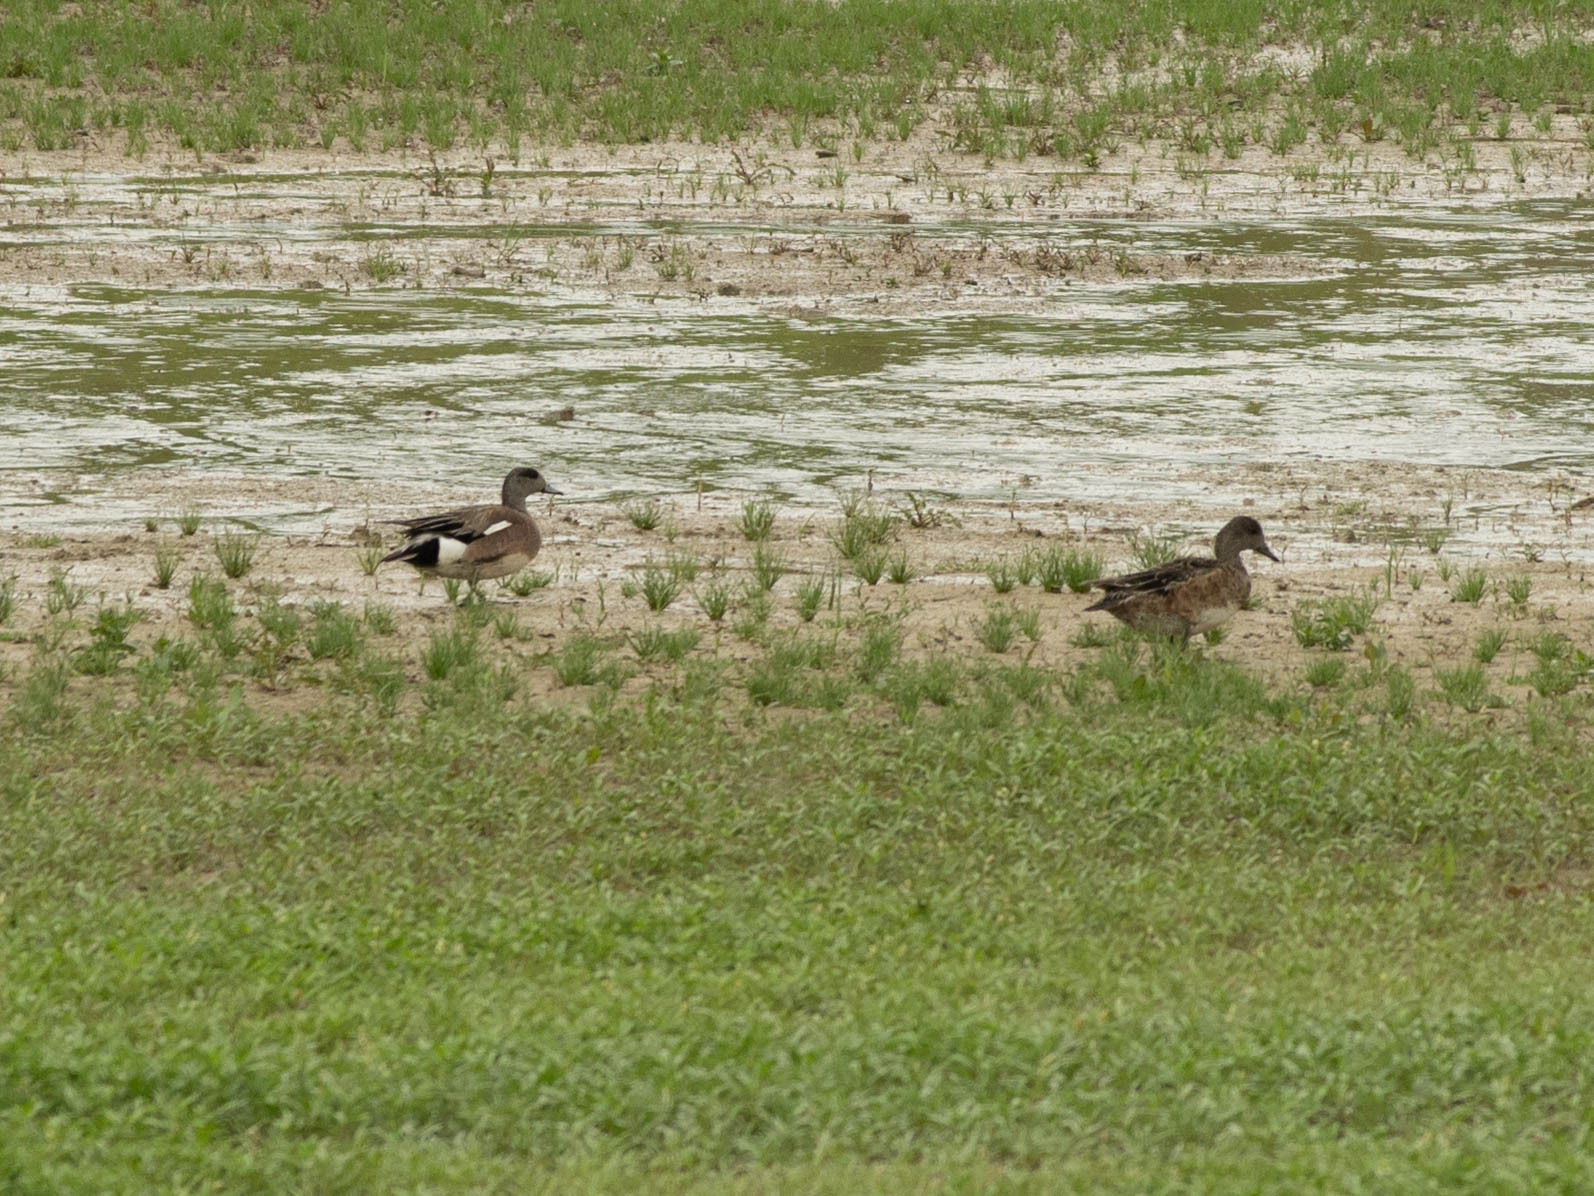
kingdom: Animalia
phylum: Chordata
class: Aves
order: Anseriformes
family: Anatidae
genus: Mareca
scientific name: Mareca americana
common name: American wigeon
